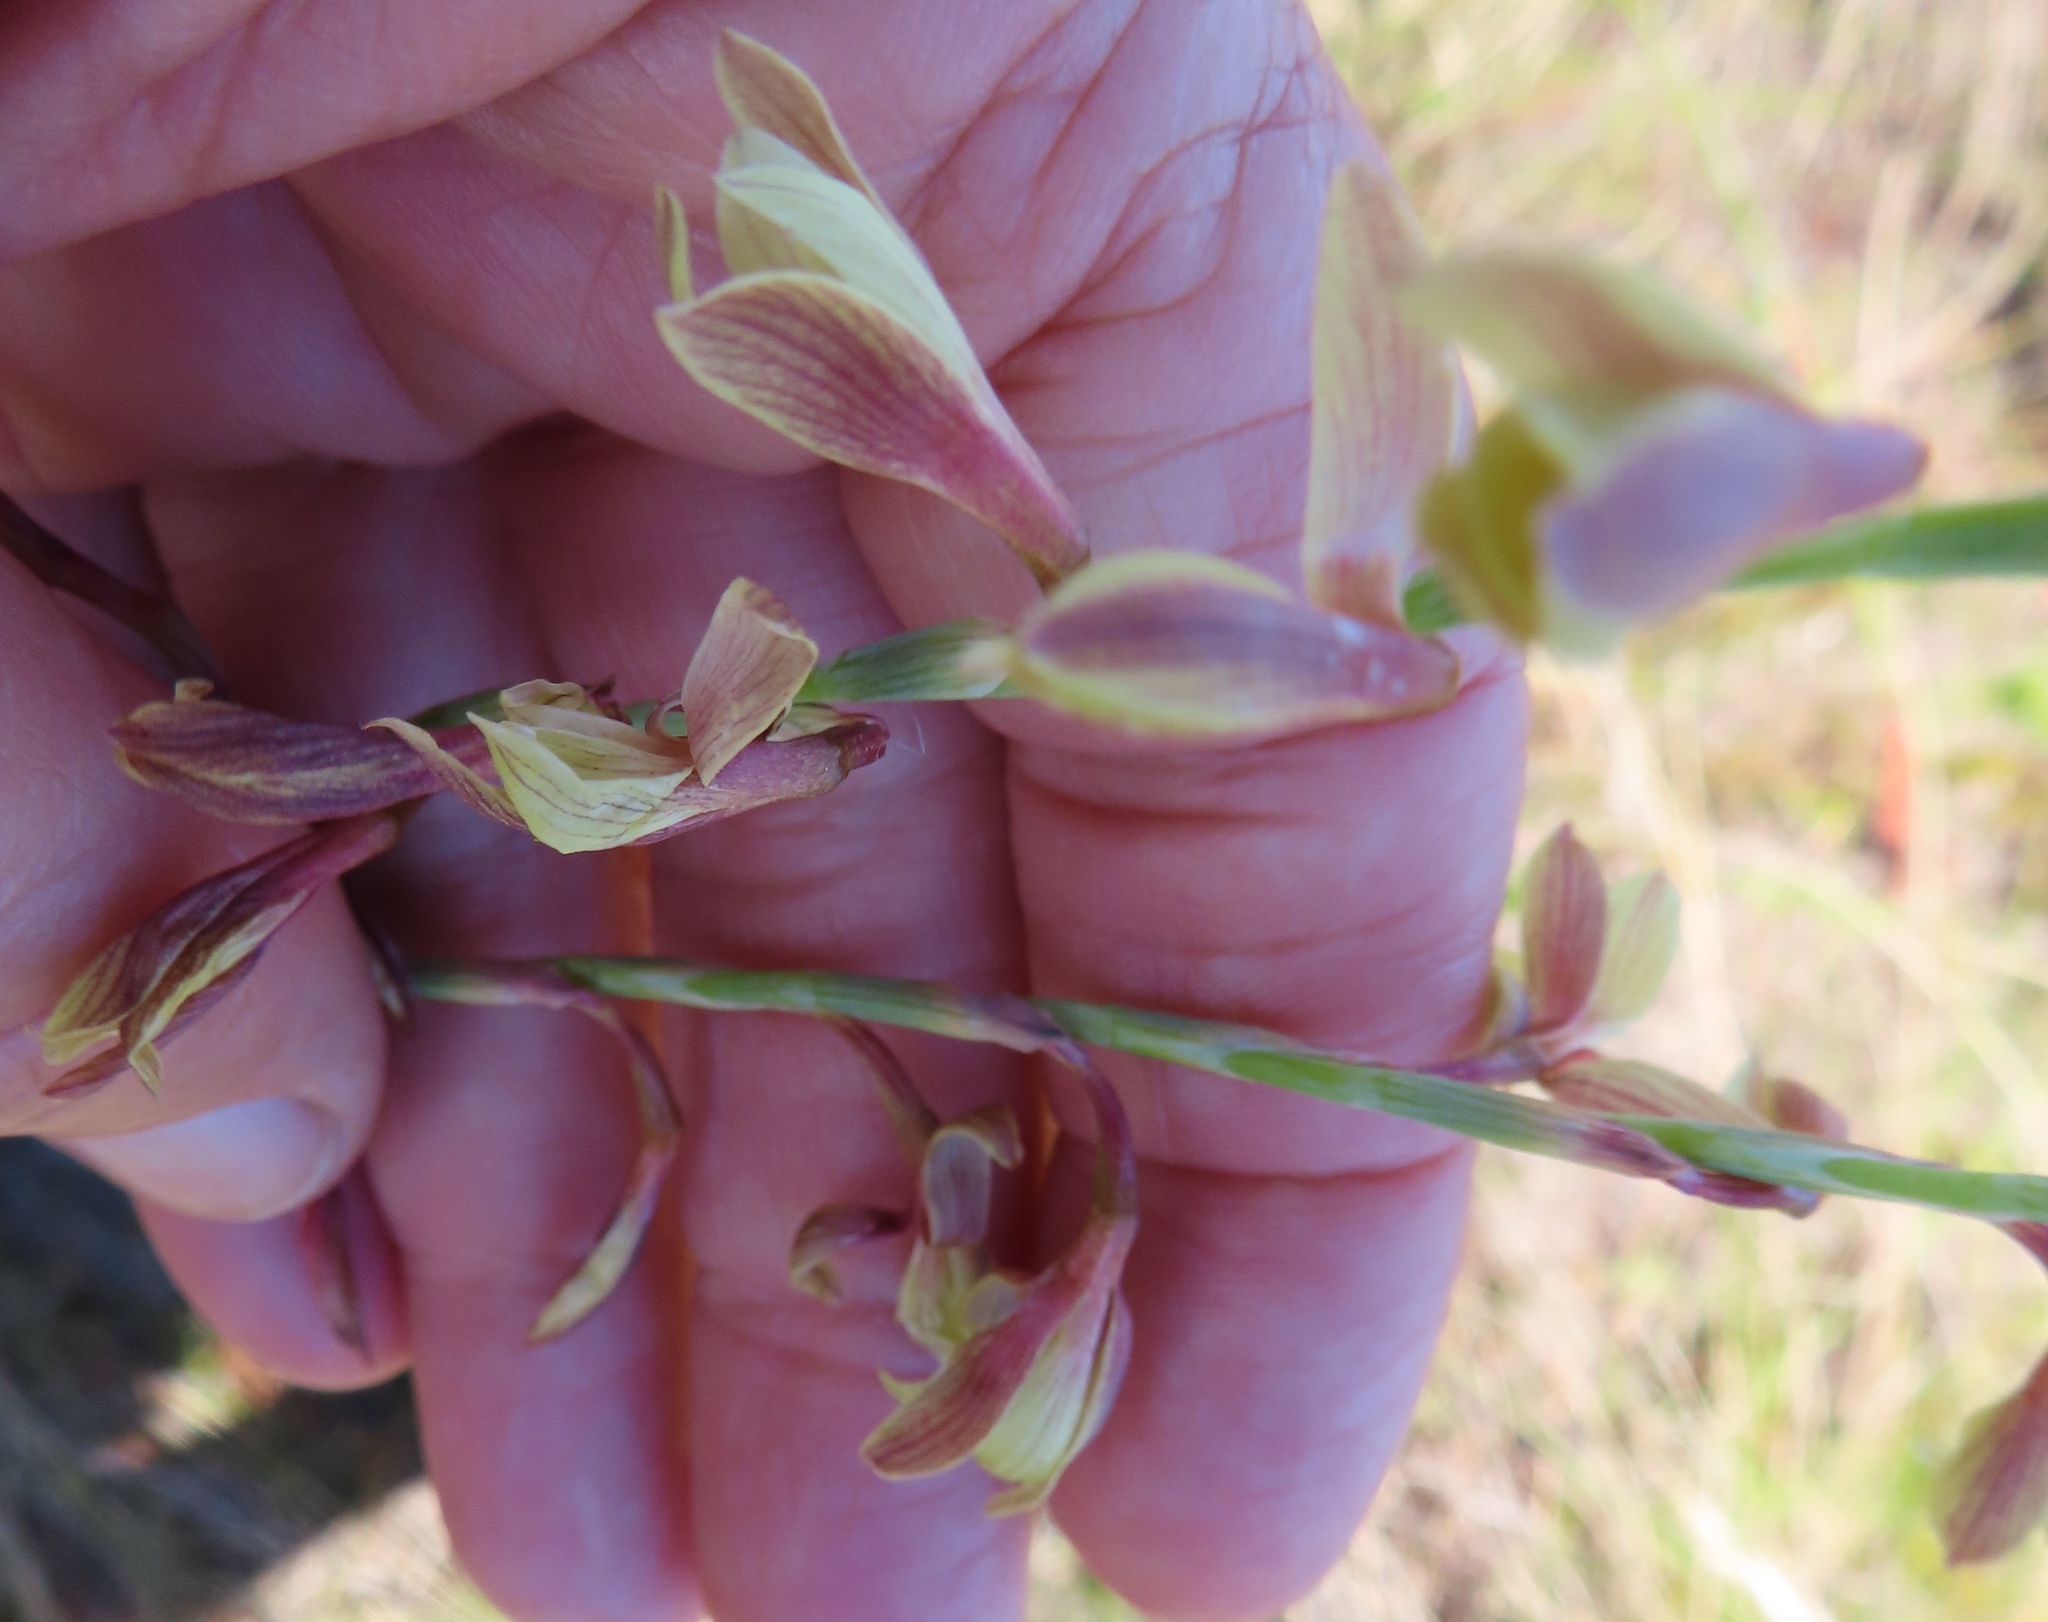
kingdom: Plantae
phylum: Tracheophyta
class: Liliopsida
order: Asparagales
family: Iridaceae
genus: Hesperantha
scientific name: Hesperantha radiata
